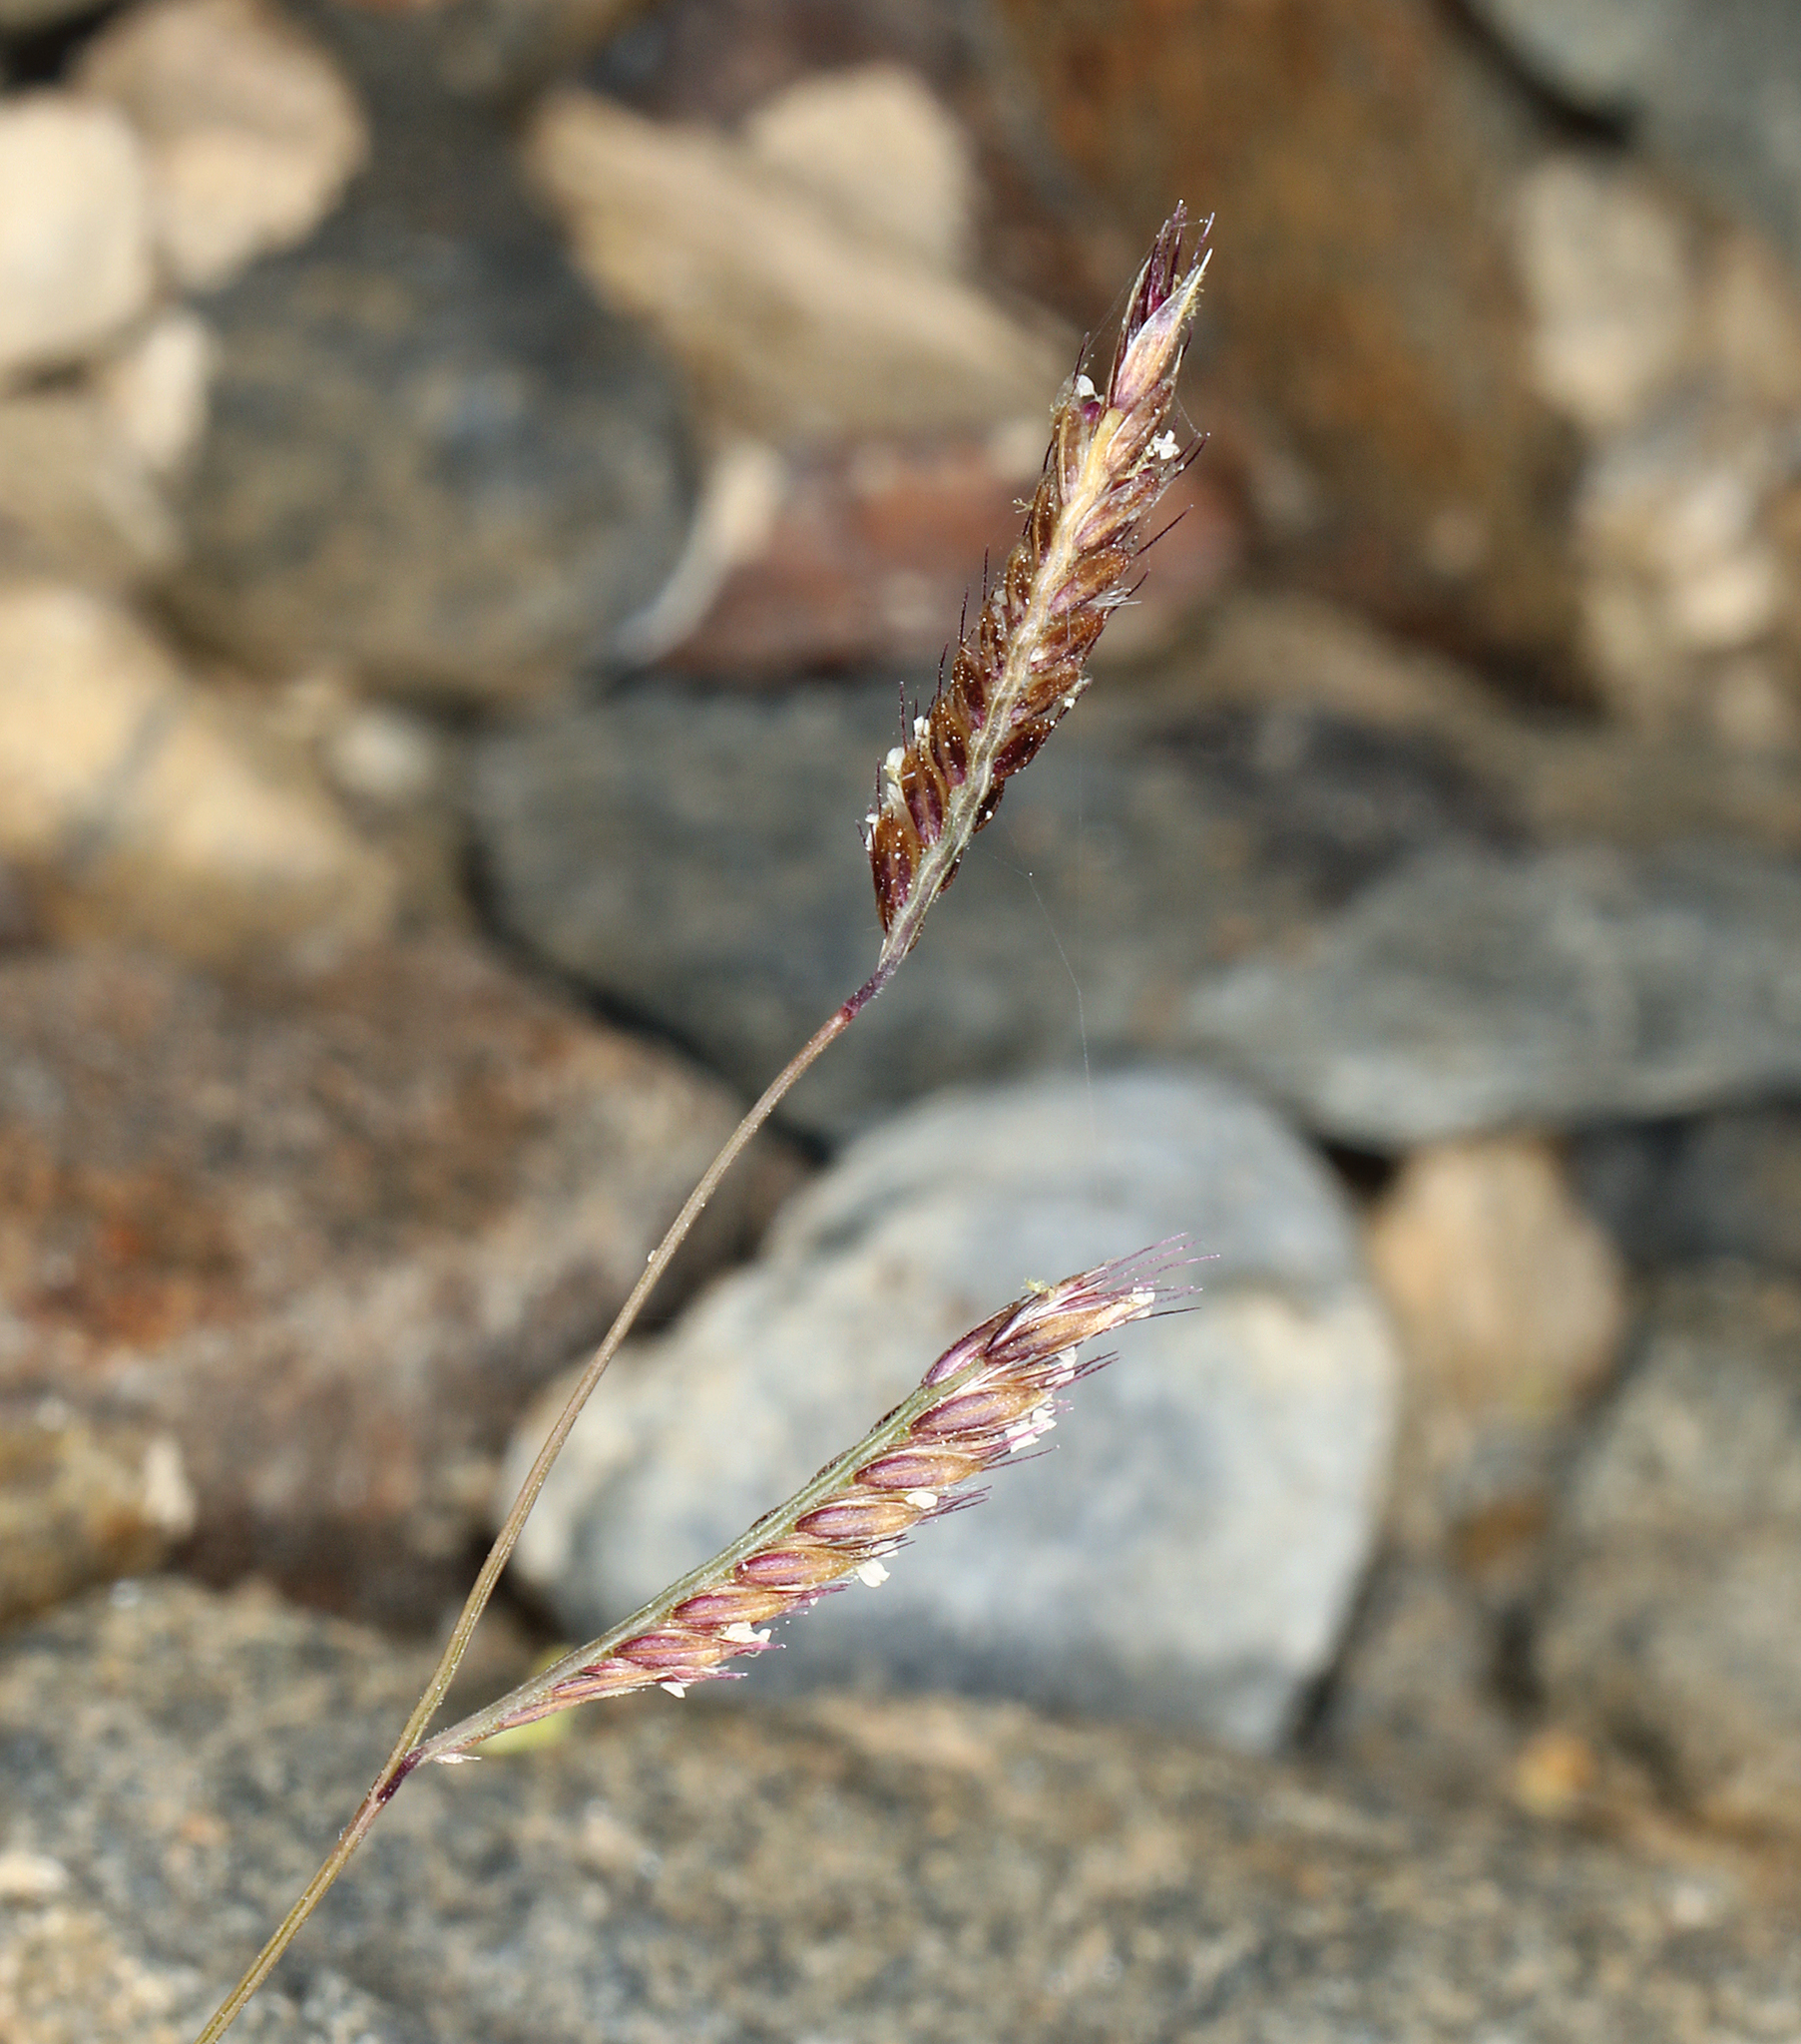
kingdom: Plantae
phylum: Tracheophyta
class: Liliopsida
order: Poales
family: Poaceae
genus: Bouteloua
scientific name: Bouteloua barbata
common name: Six-weeks grama
